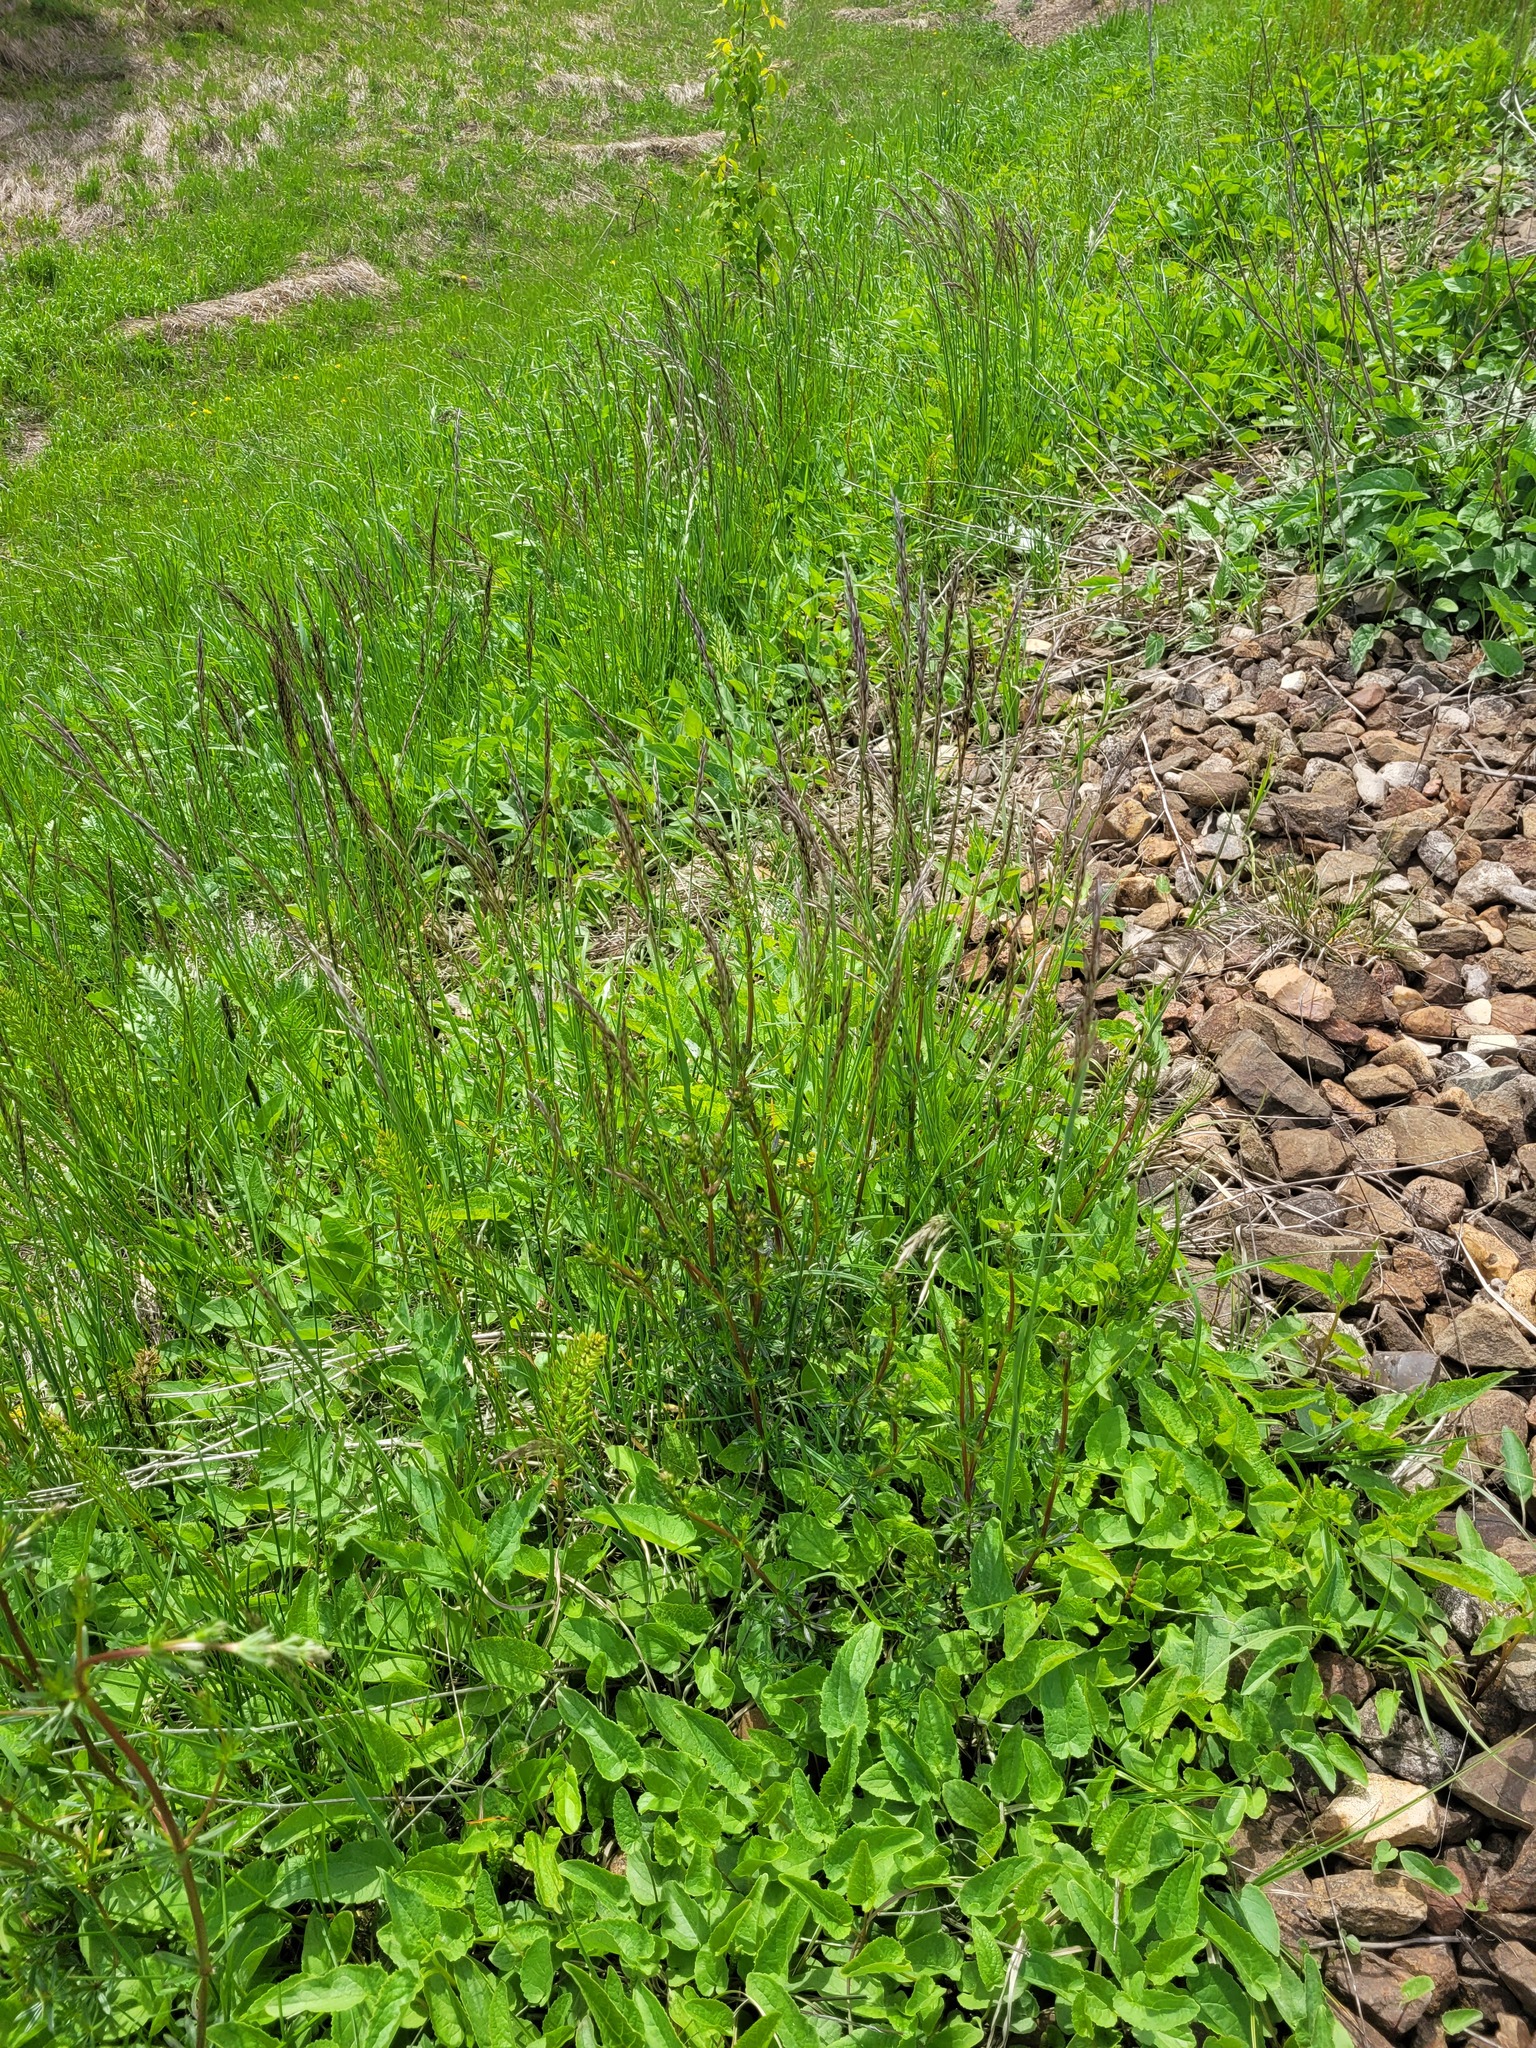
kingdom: Plantae
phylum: Tracheophyta
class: Liliopsida
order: Poales
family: Poaceae
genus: Avenula
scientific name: Avenula pubescens
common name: Downy alpine oatgrass
